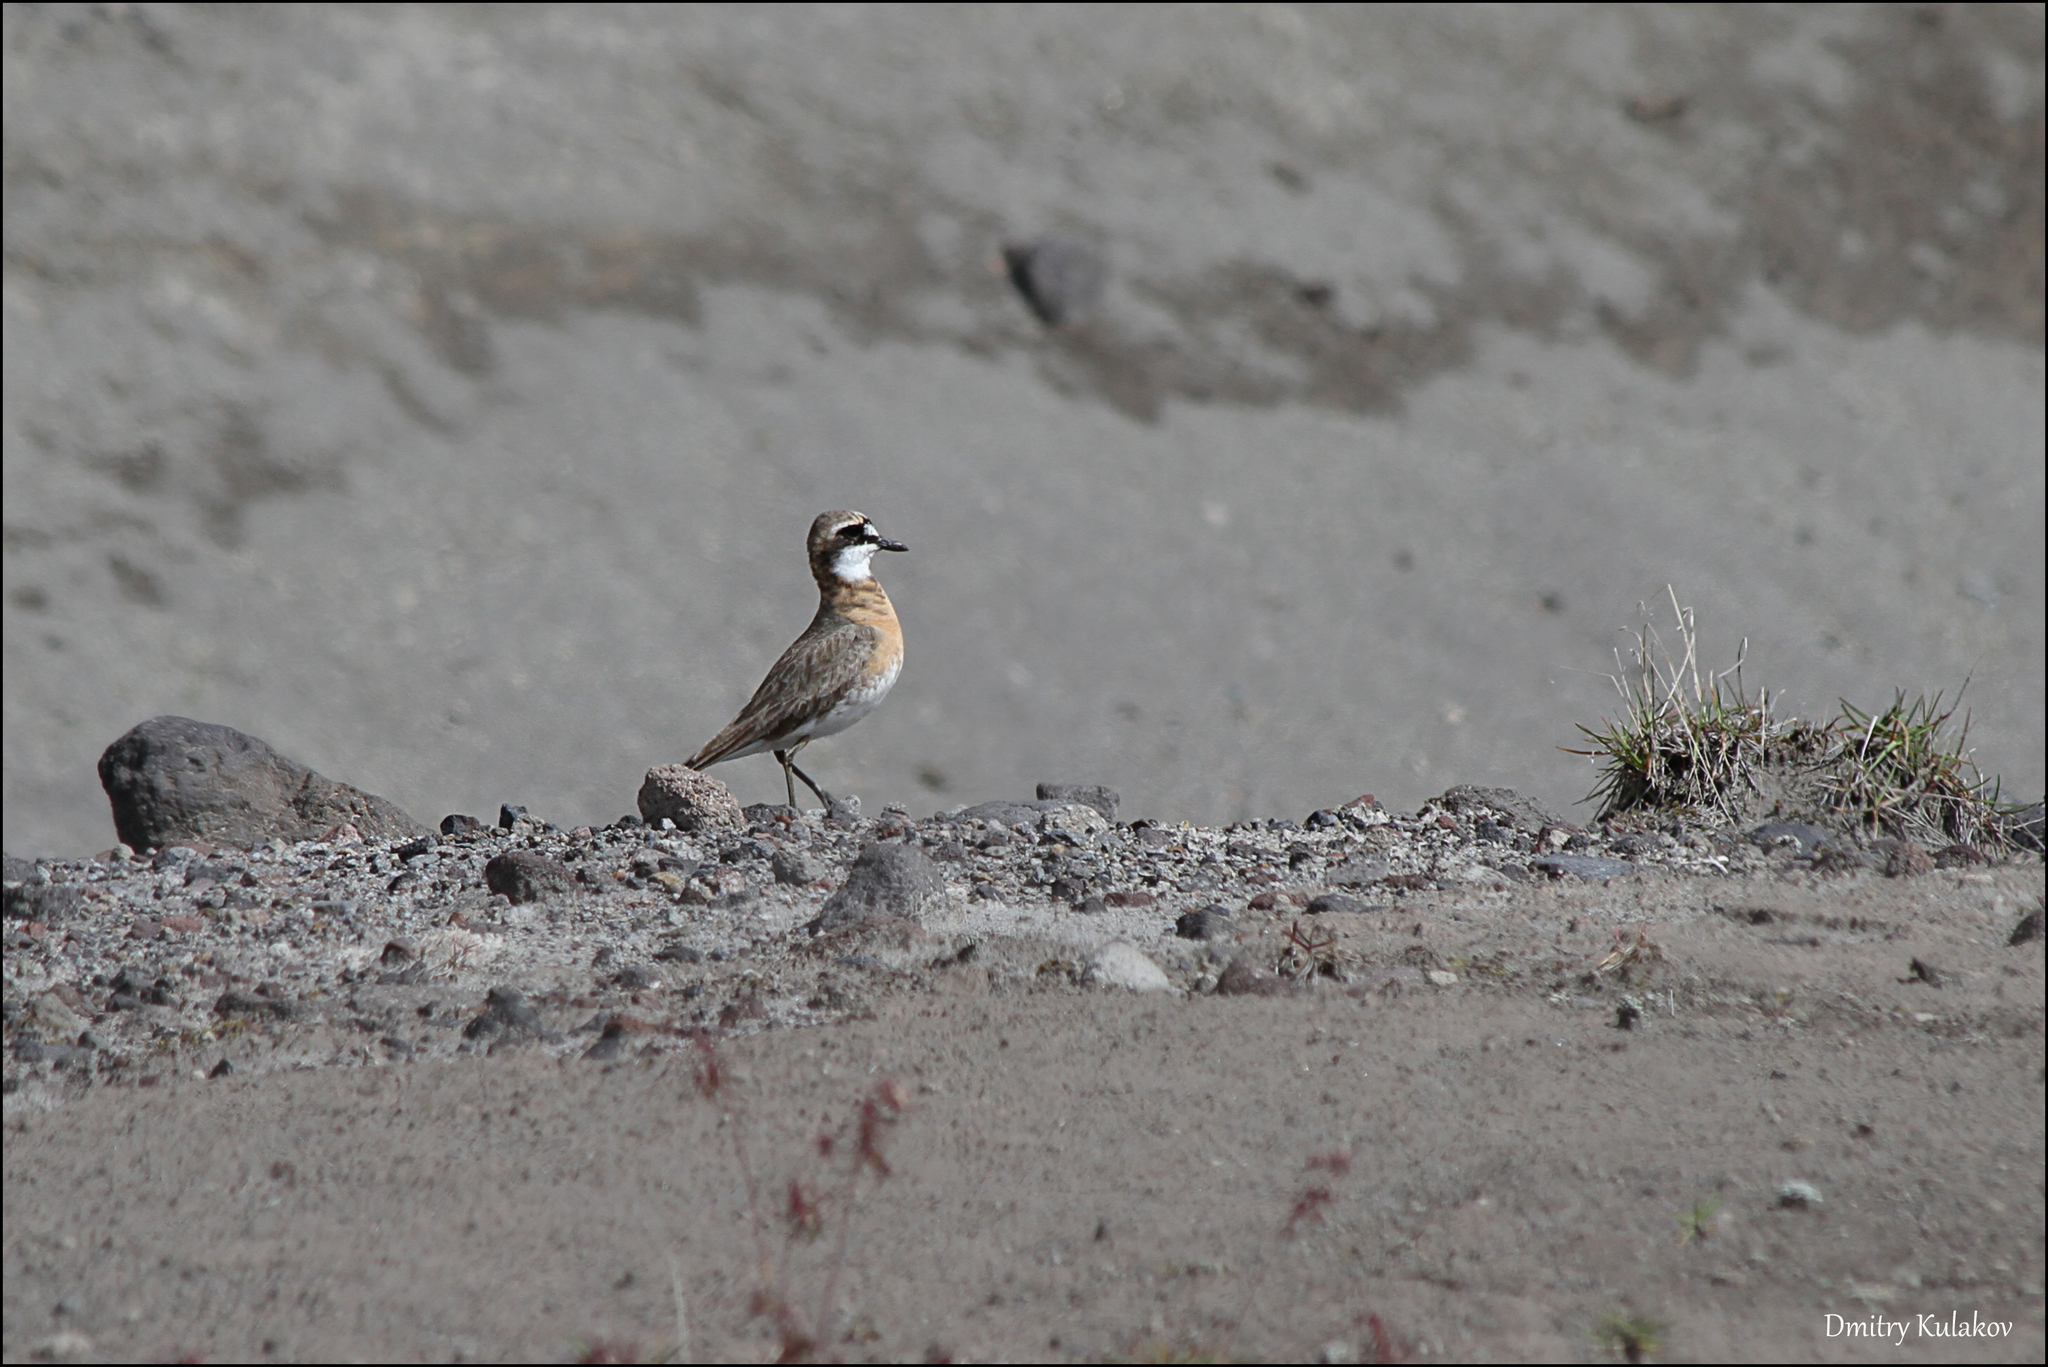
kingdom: Animalia
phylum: Chordata
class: Aves
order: Charadriiformes
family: Charadriidae
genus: Anarhynchus
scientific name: Anarhynchus
